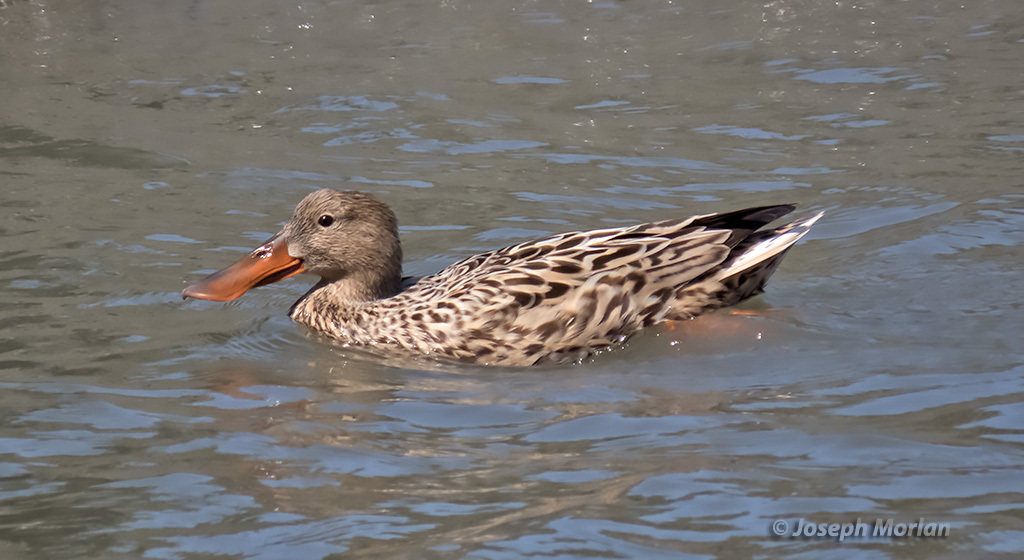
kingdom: Animalia
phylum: Chordata
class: Aves
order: Anseriformes
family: Anatidae
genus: Spatula
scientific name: Spatula clypeata
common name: Northern shoveler
